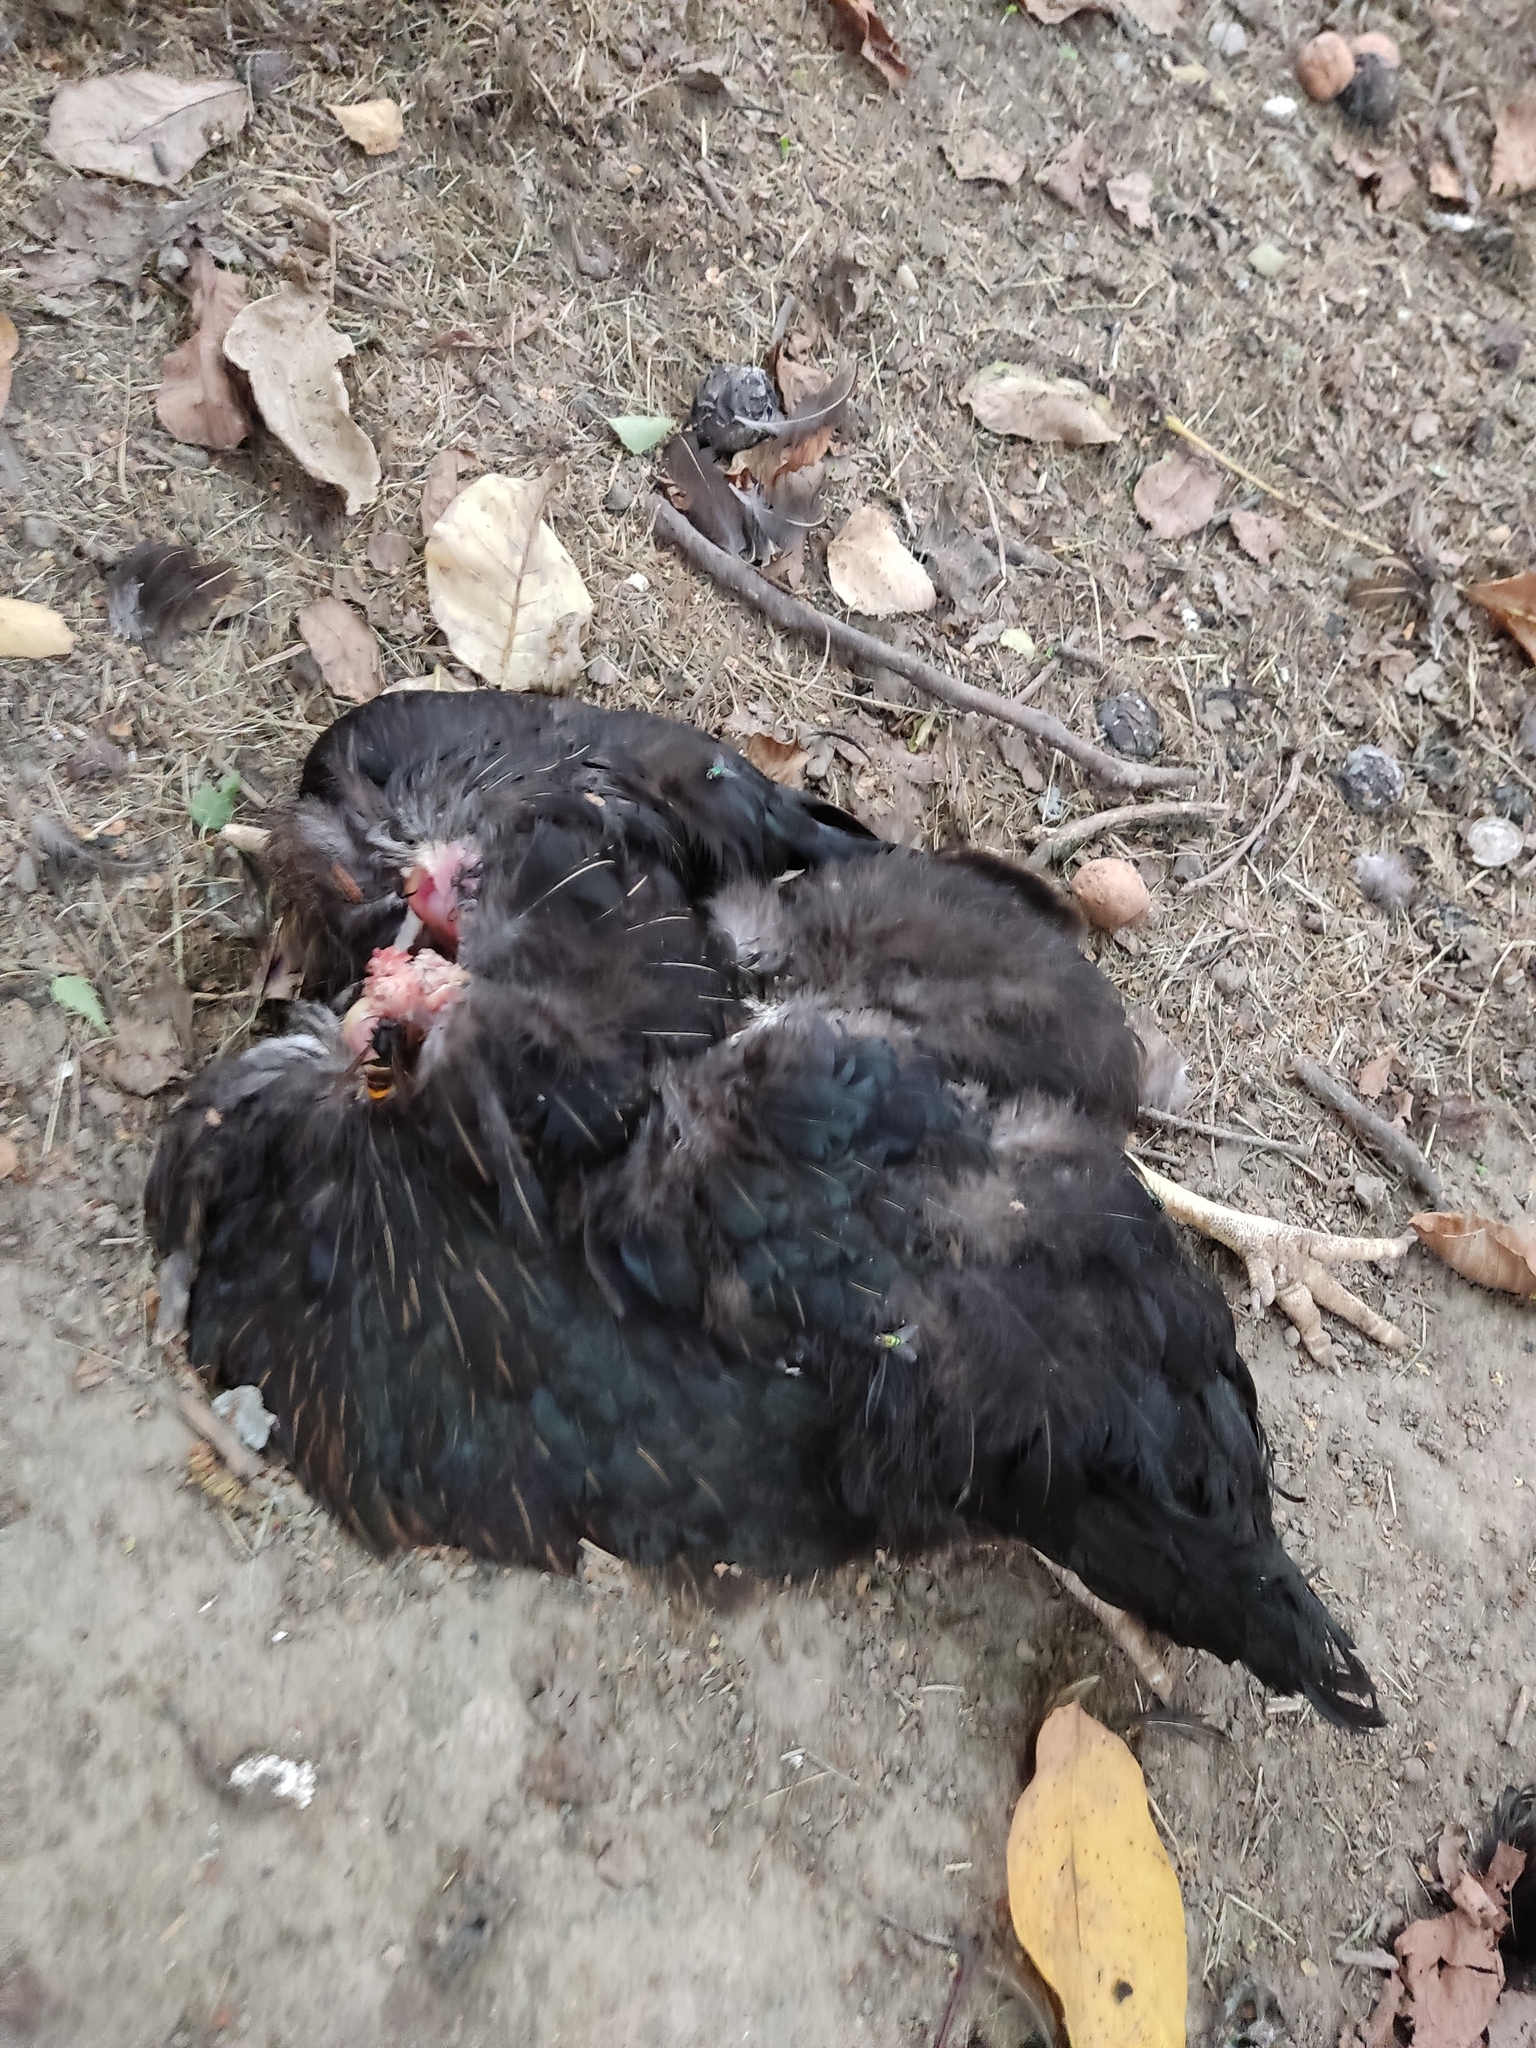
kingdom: Animalia
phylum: Arthropoda
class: Insecta
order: Hymenoptera
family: Vespidae
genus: Vespa
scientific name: Vespa velutina
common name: Asian hornet
